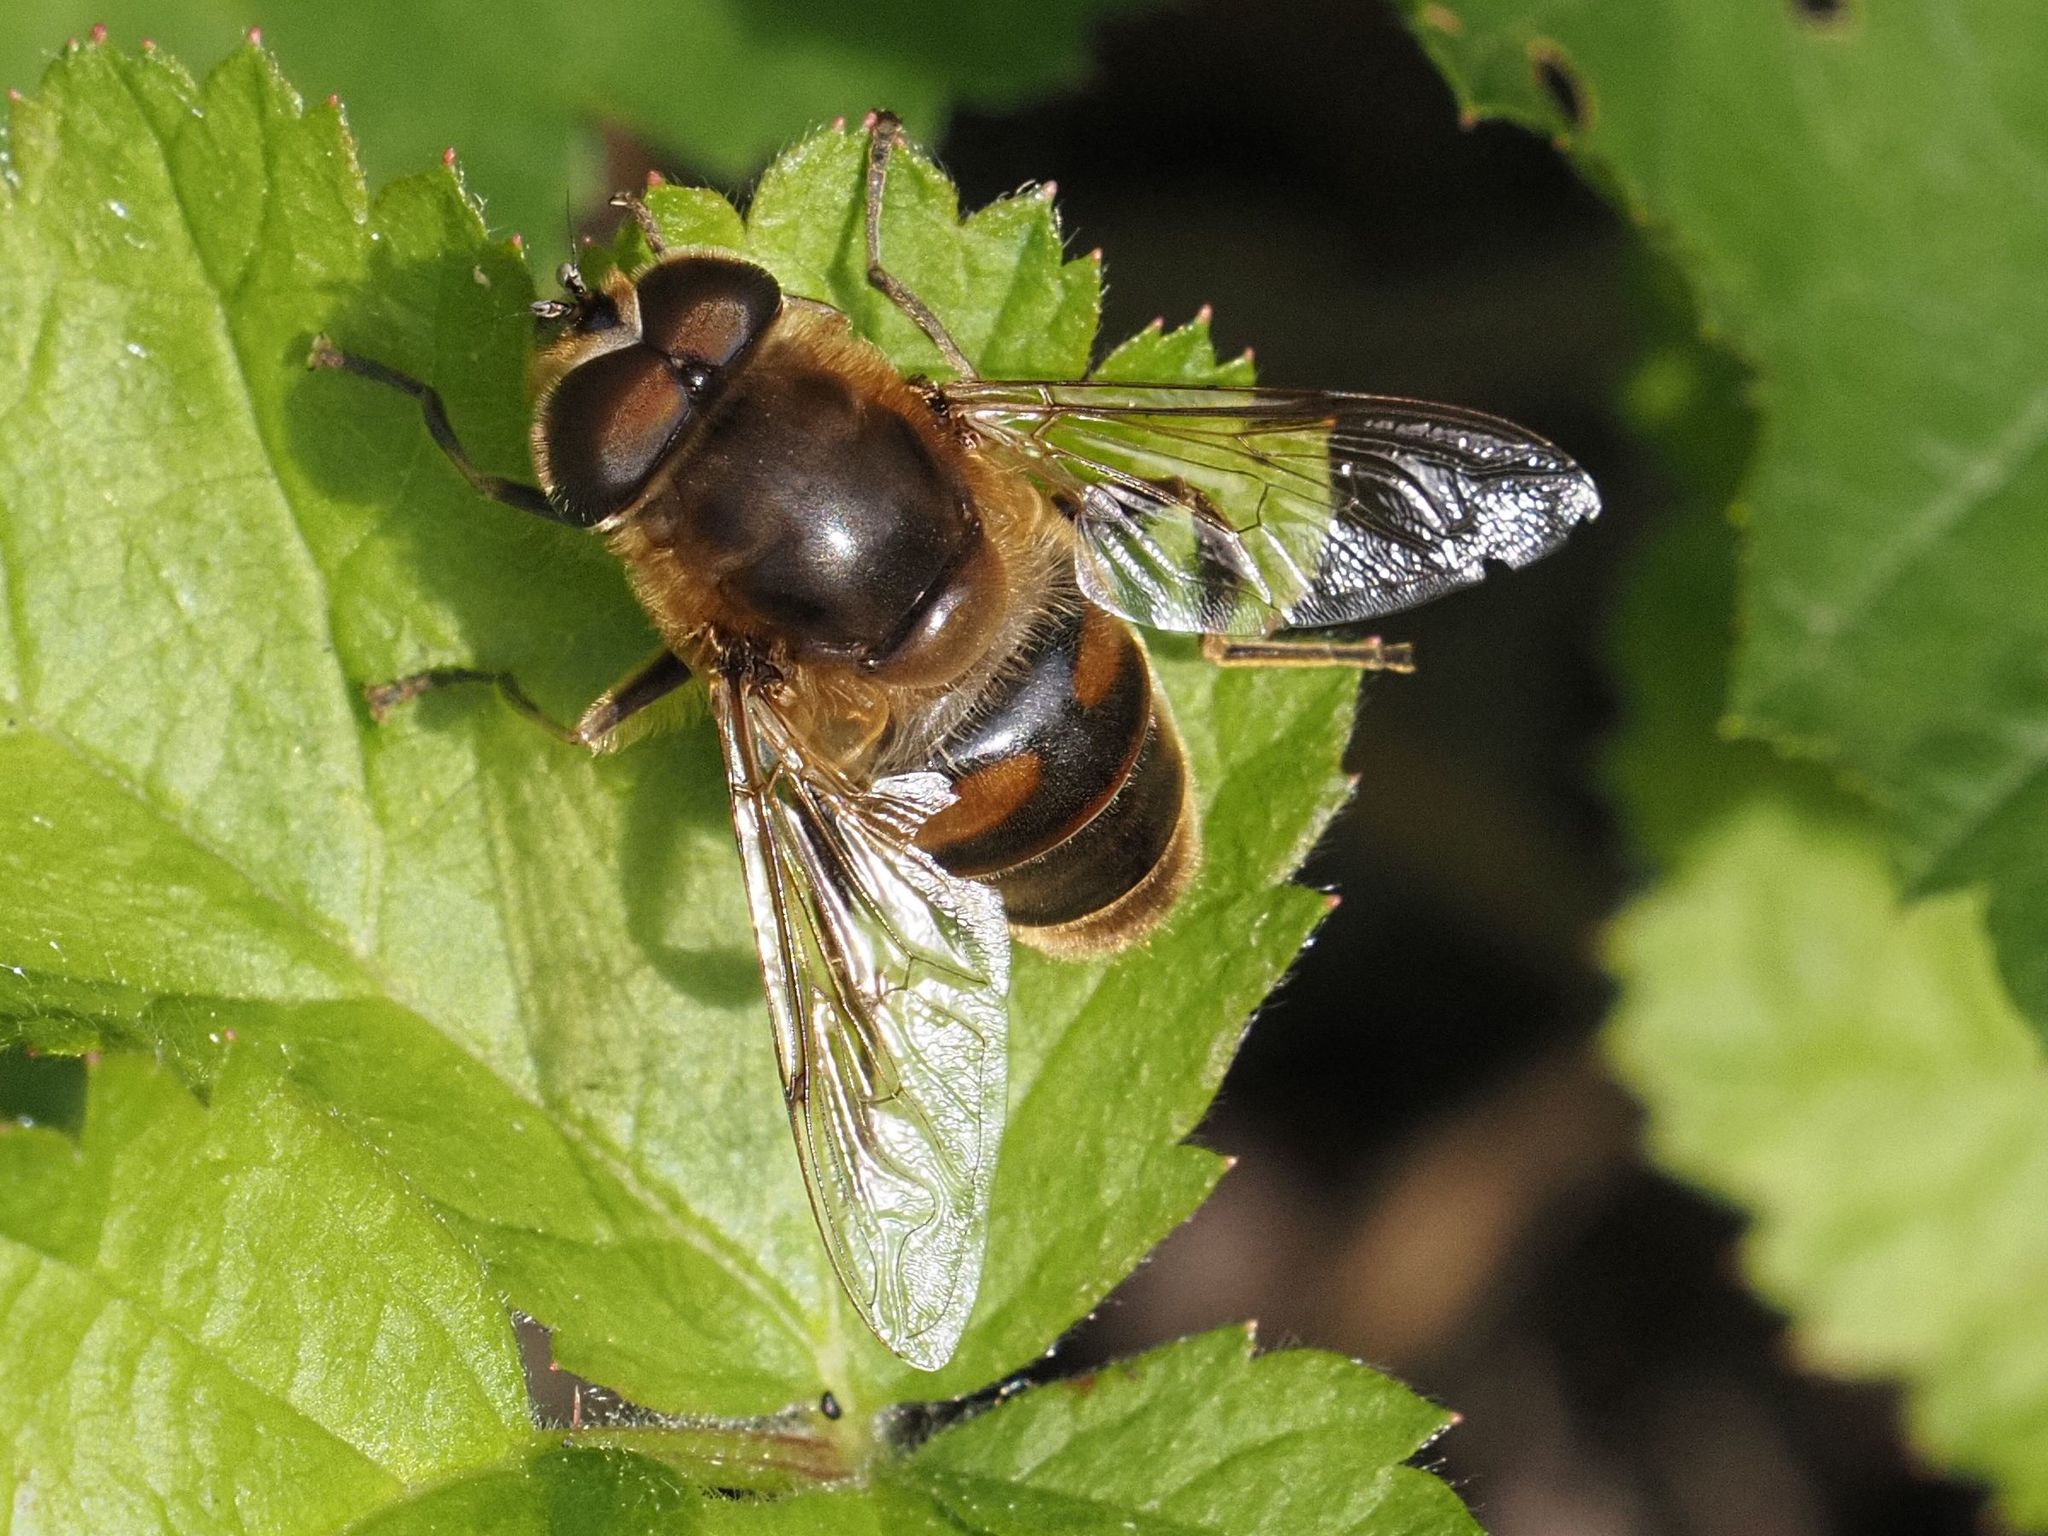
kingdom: Animalia
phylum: Arthropoda
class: Insecta
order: Diptera
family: Syrphidae
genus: Eristalis
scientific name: Eristalis tenax
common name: Drone fly
